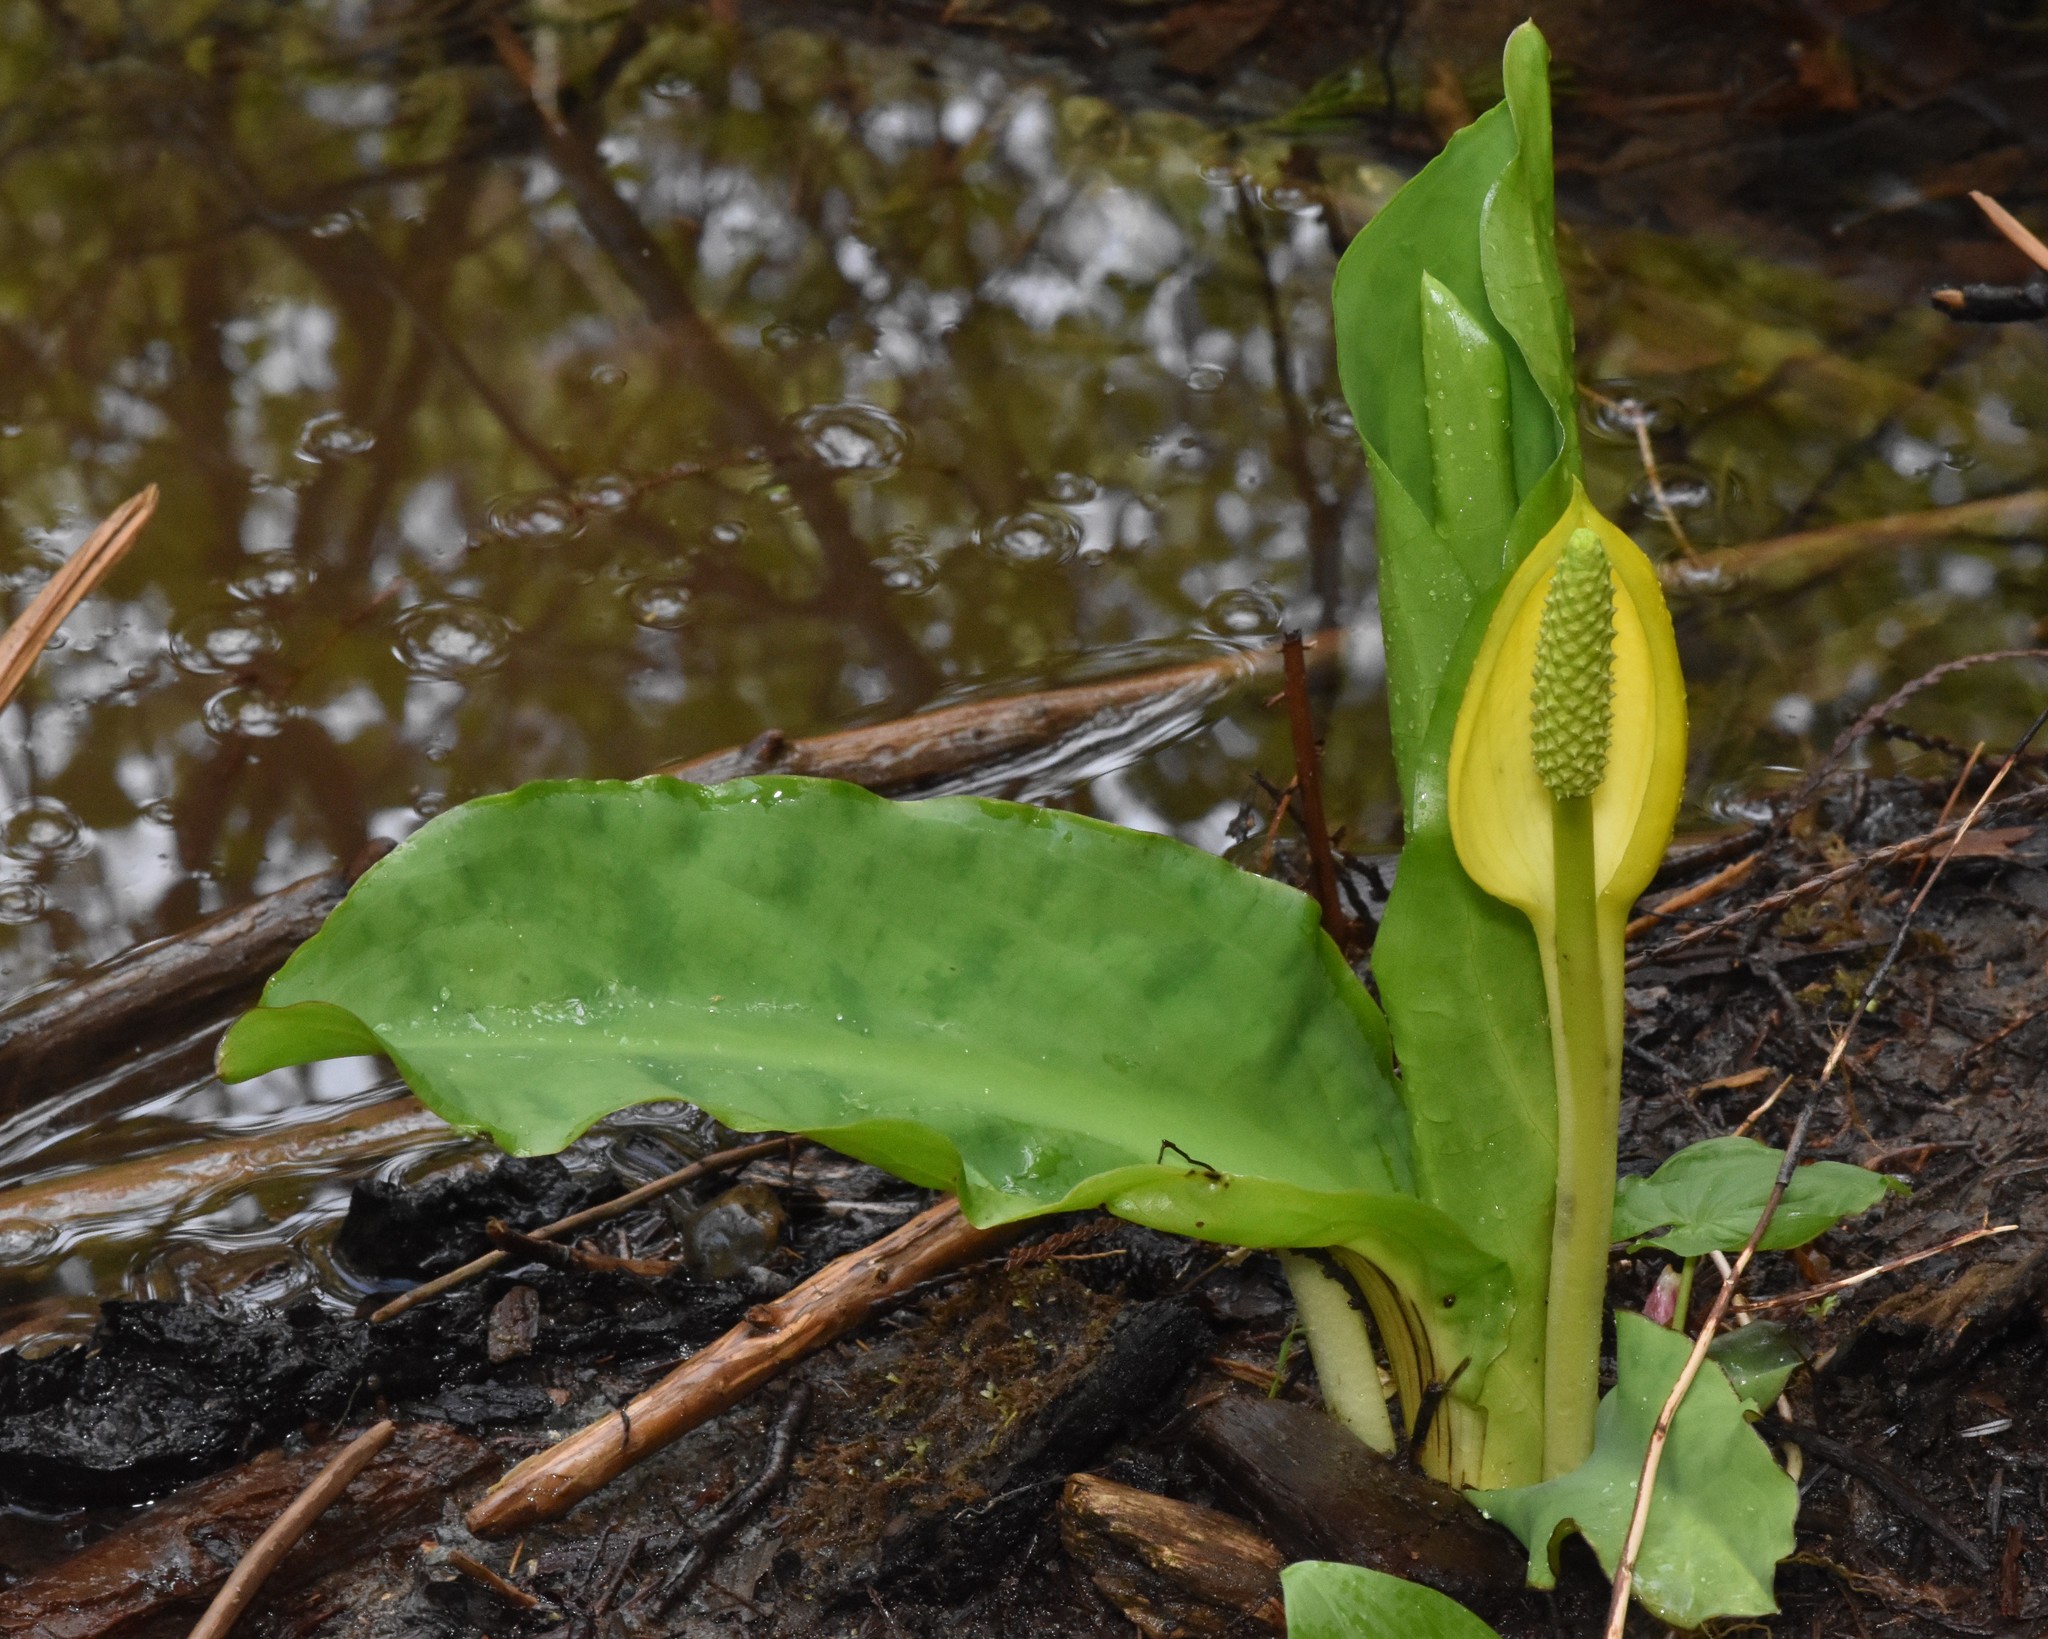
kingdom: Plantae
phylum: Tracheophyta
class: Liliopsida
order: Alismatales
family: Araceae
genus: Lysichiton
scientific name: Lysichiton americanus
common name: American skunk cabbage
